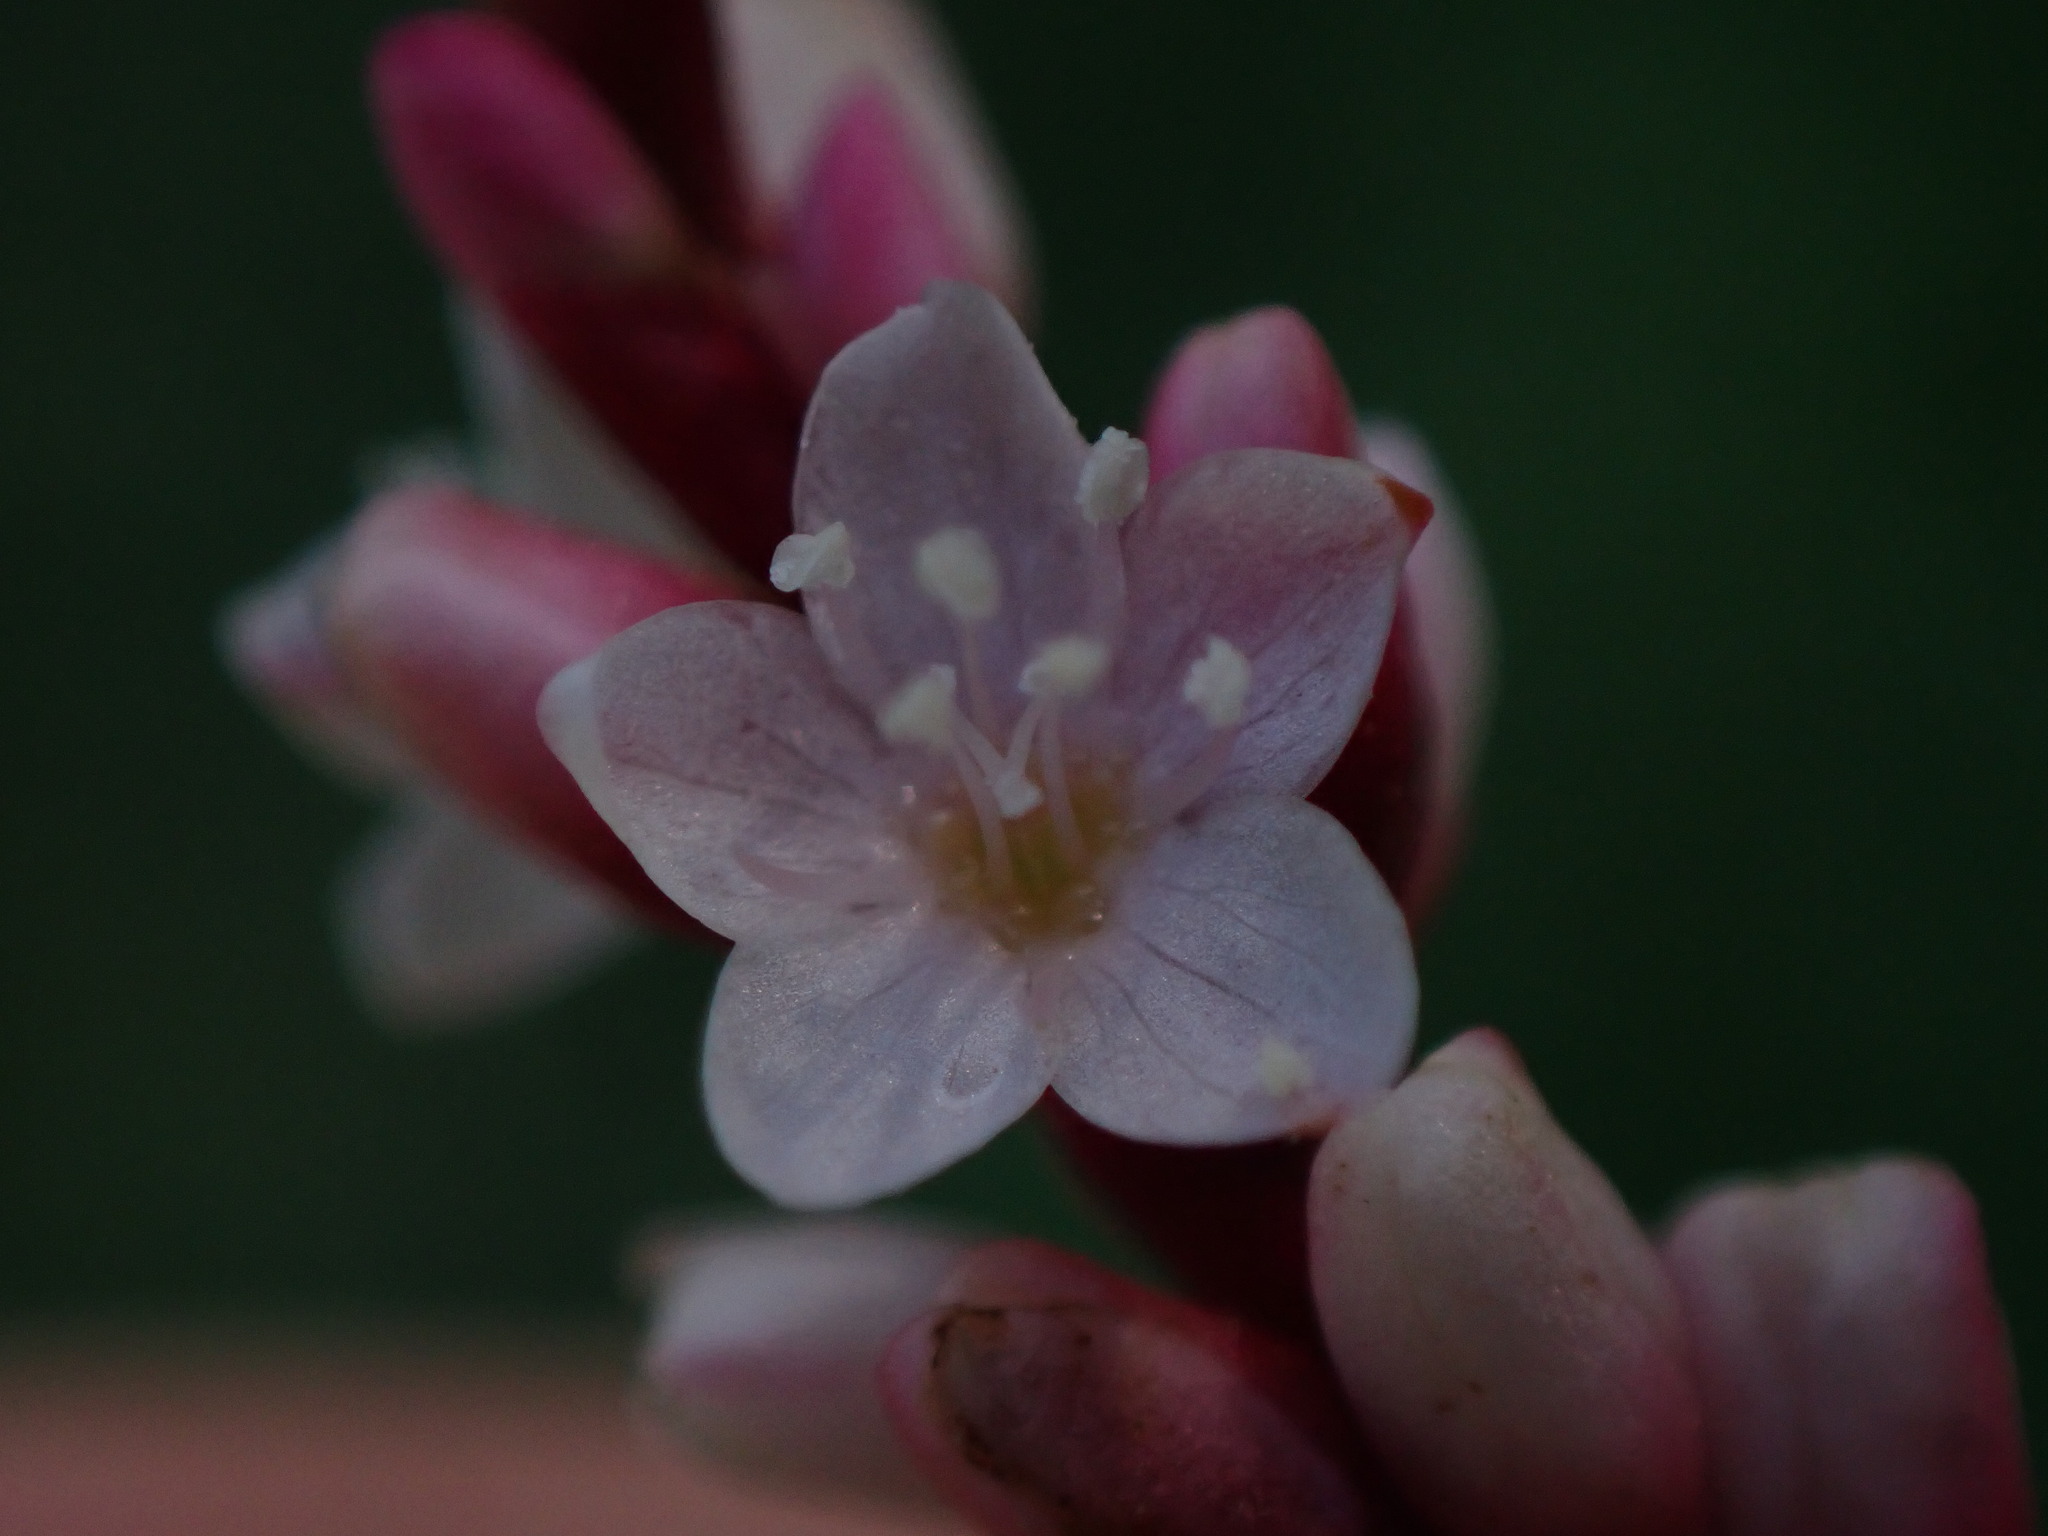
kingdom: Plantae
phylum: Tracheophyta
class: Magnoliopsida
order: Caryophyllales
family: Polygonaceae
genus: Persicaria
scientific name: Persicaria hydropiperoides
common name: Swamp smartweed
